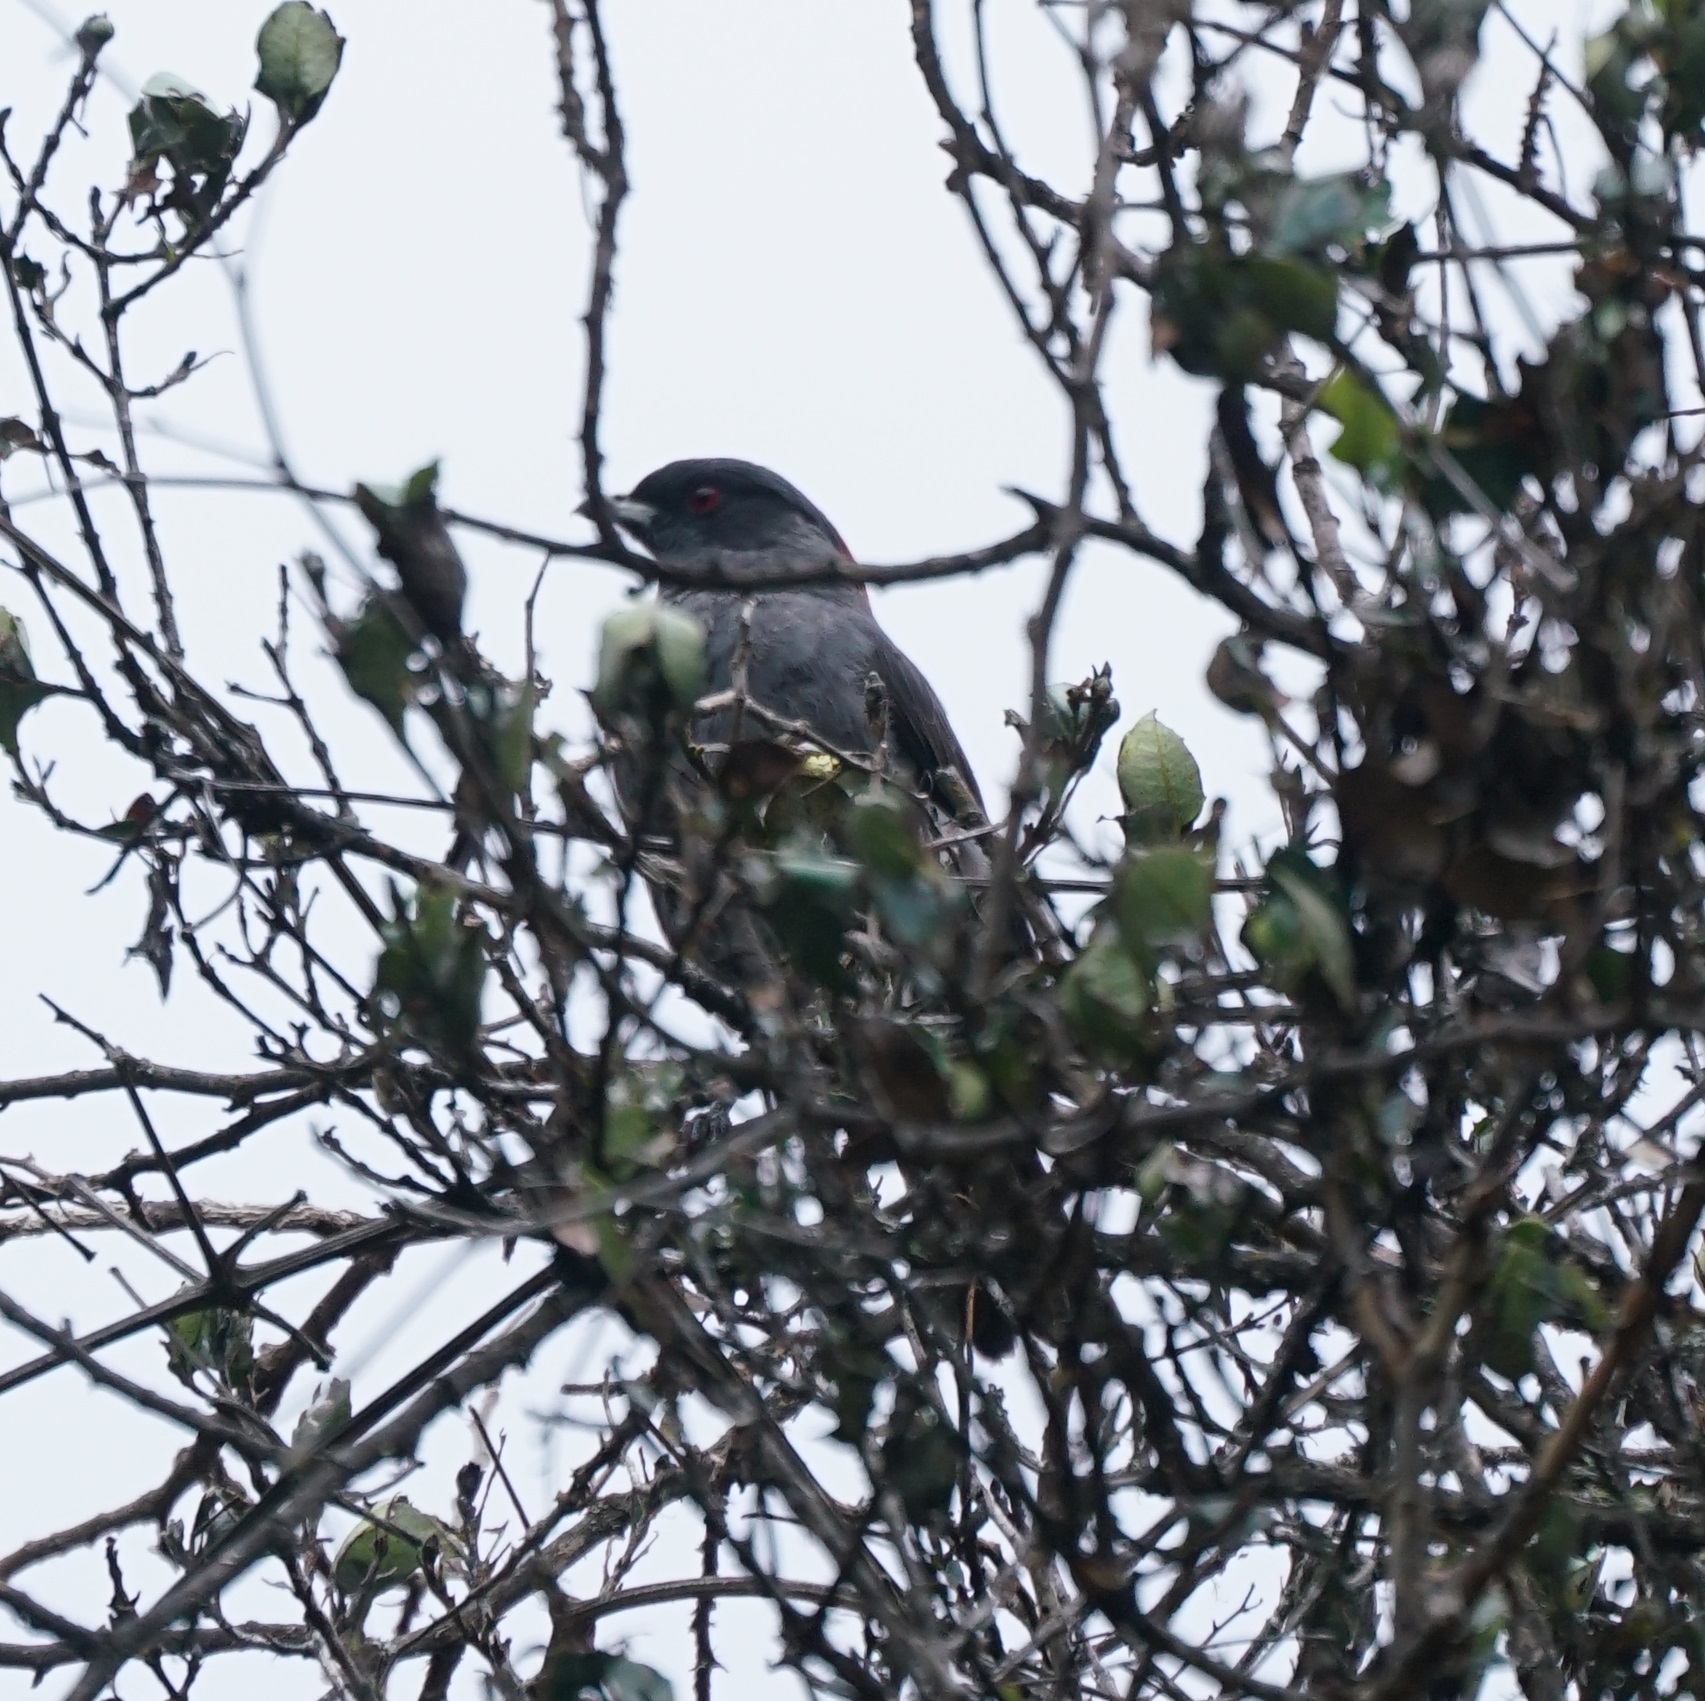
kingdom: Animalia
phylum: Chordata
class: Aves
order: Passeriformes
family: Cotingidae
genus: Ampelion
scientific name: Ampelion rubrocristatus
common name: Red-crested cotinga
